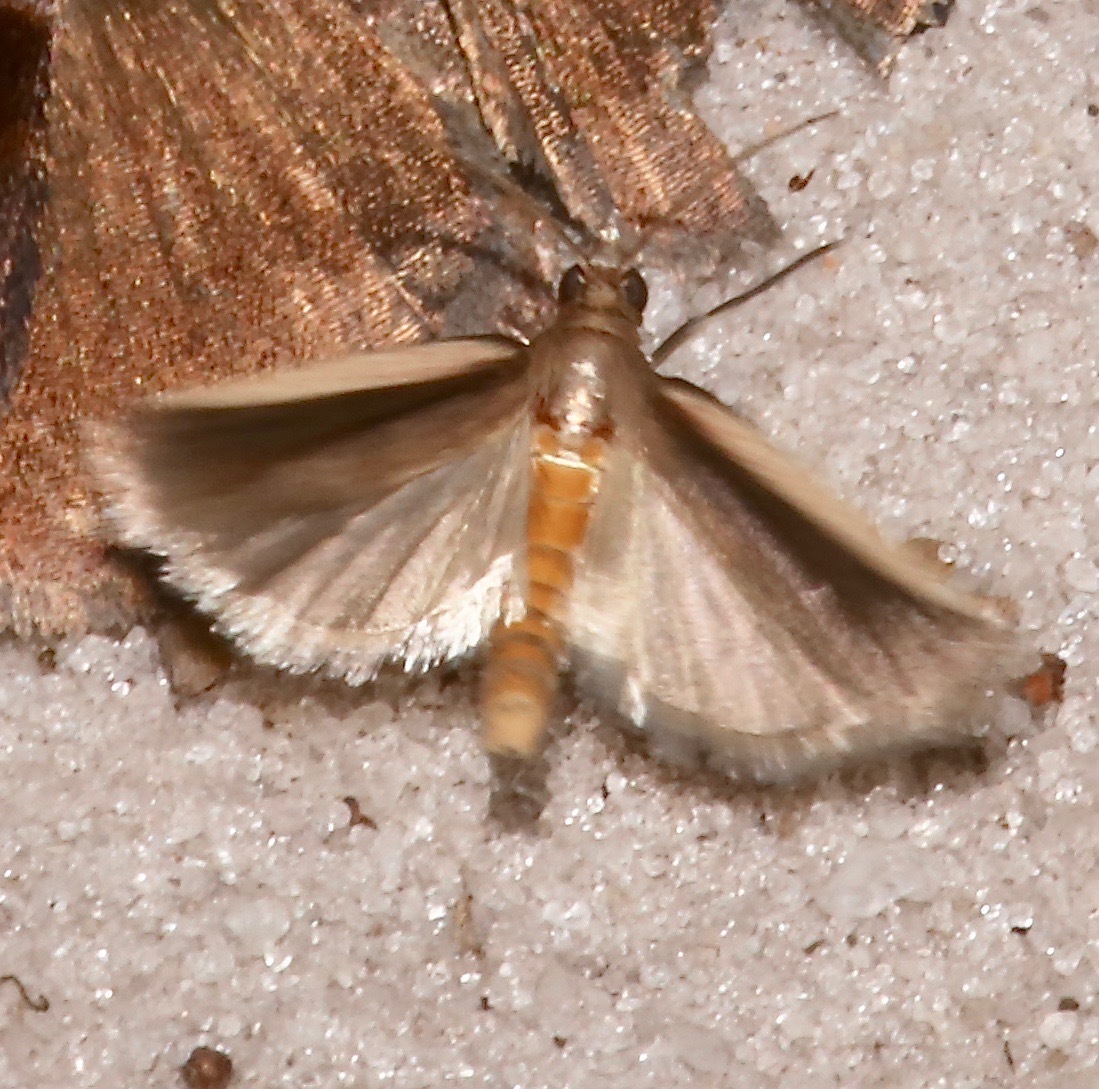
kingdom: Animalia
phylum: Arthropoda
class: Insecta
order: Lepidoptera
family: Pyralidae
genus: Homosassa
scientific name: Homosassa ella
